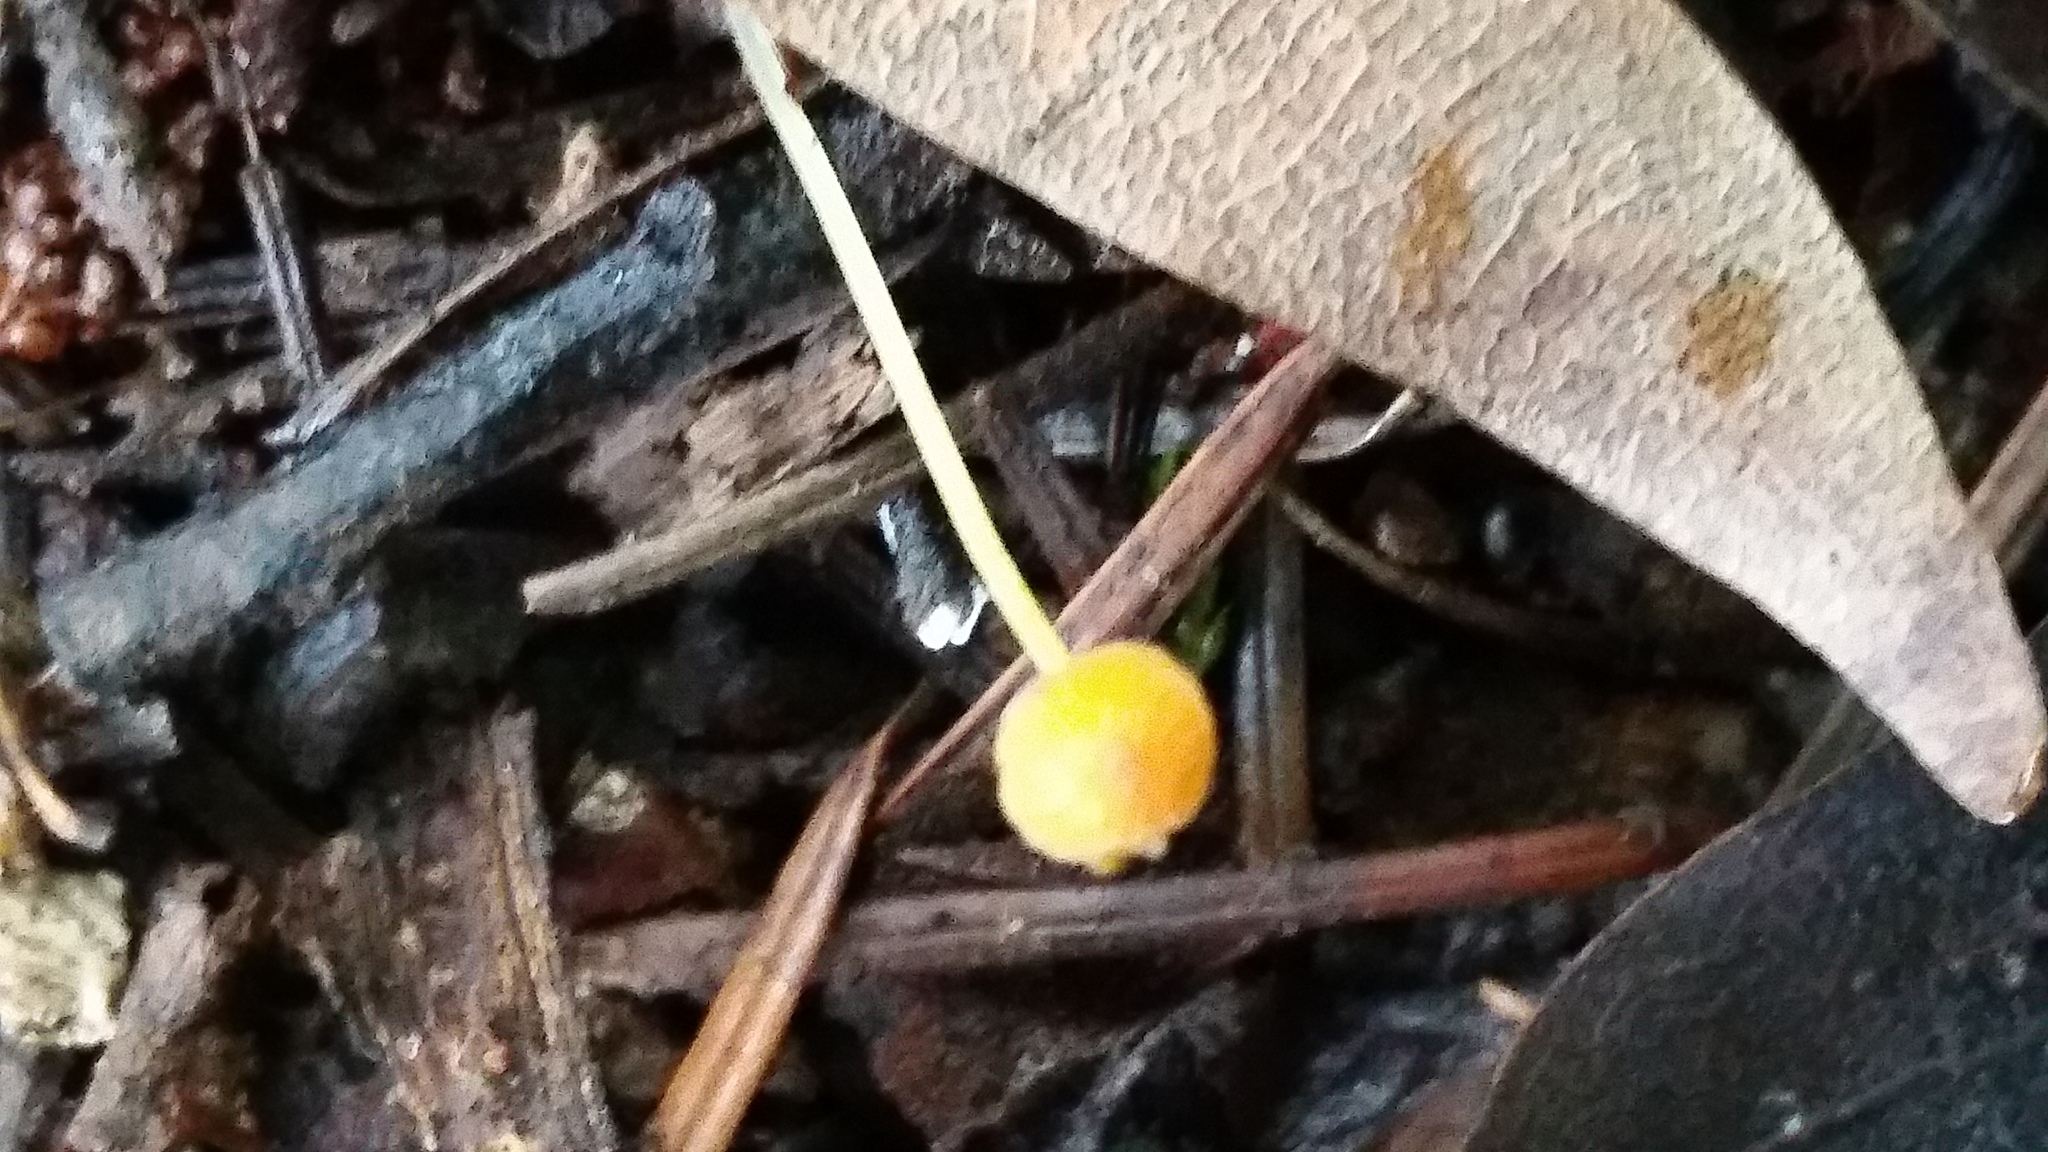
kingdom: Fungi
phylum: Basidiomycota
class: Agaricomycetes
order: Agaricales
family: Mycenaceae
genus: Mycena
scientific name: Mycena acicula
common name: Orange bonnet
